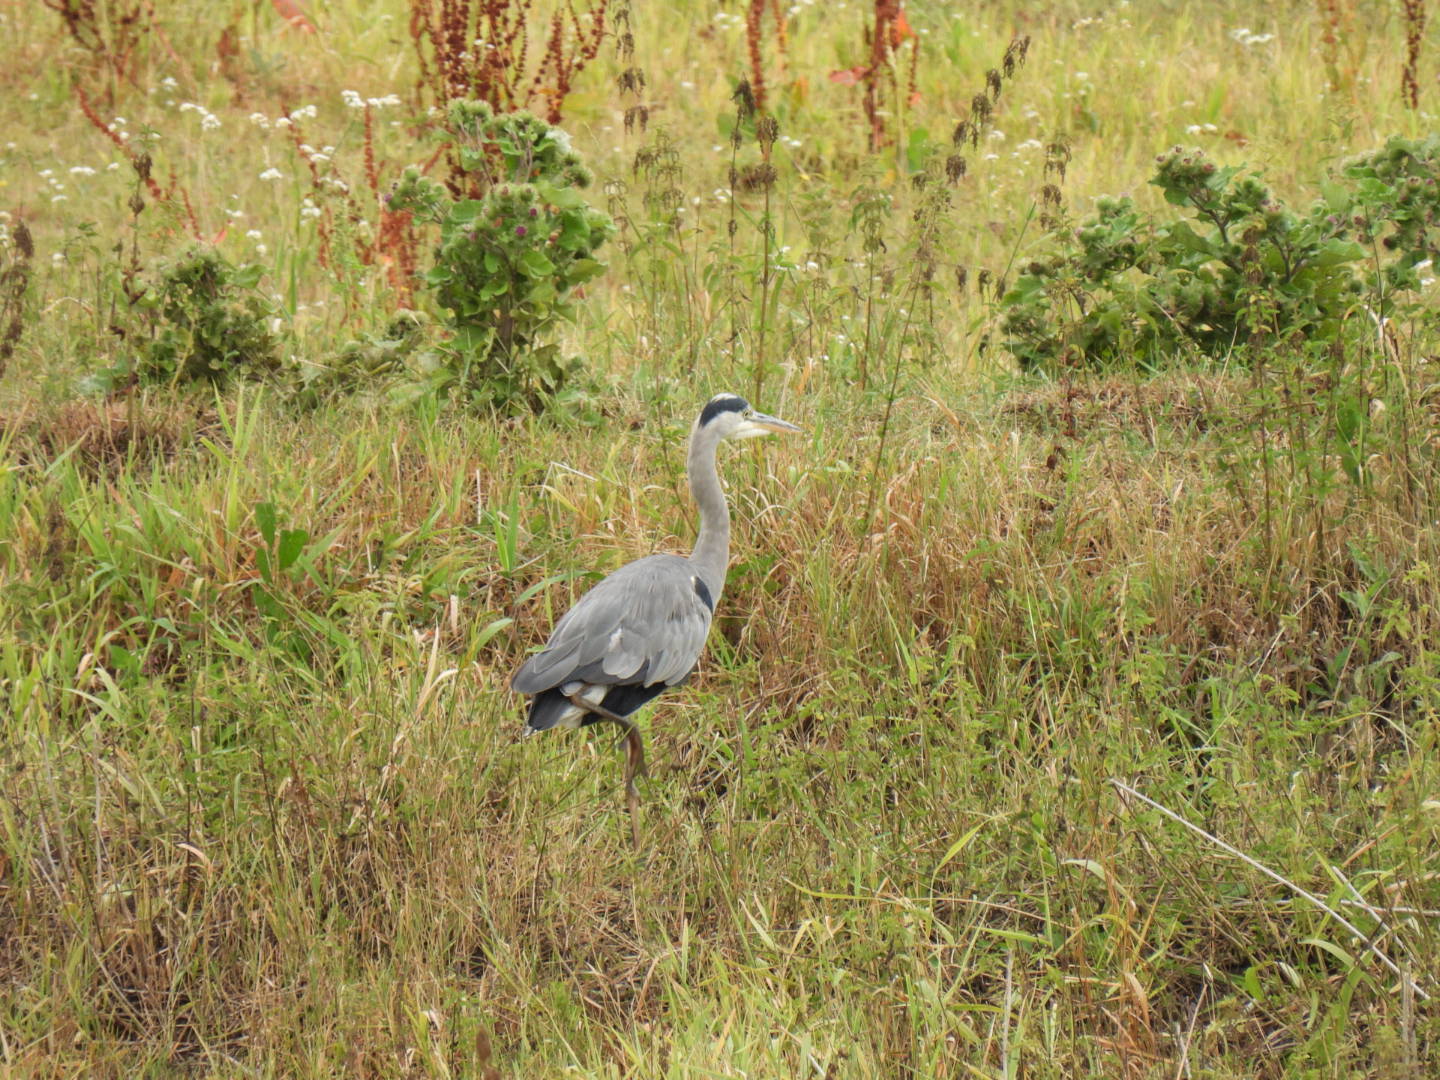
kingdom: Animalia
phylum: Chordata
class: Aves
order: Pelecaniformes
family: Ardeidae
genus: Ardea
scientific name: Ardea cinerea
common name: Grey heron
